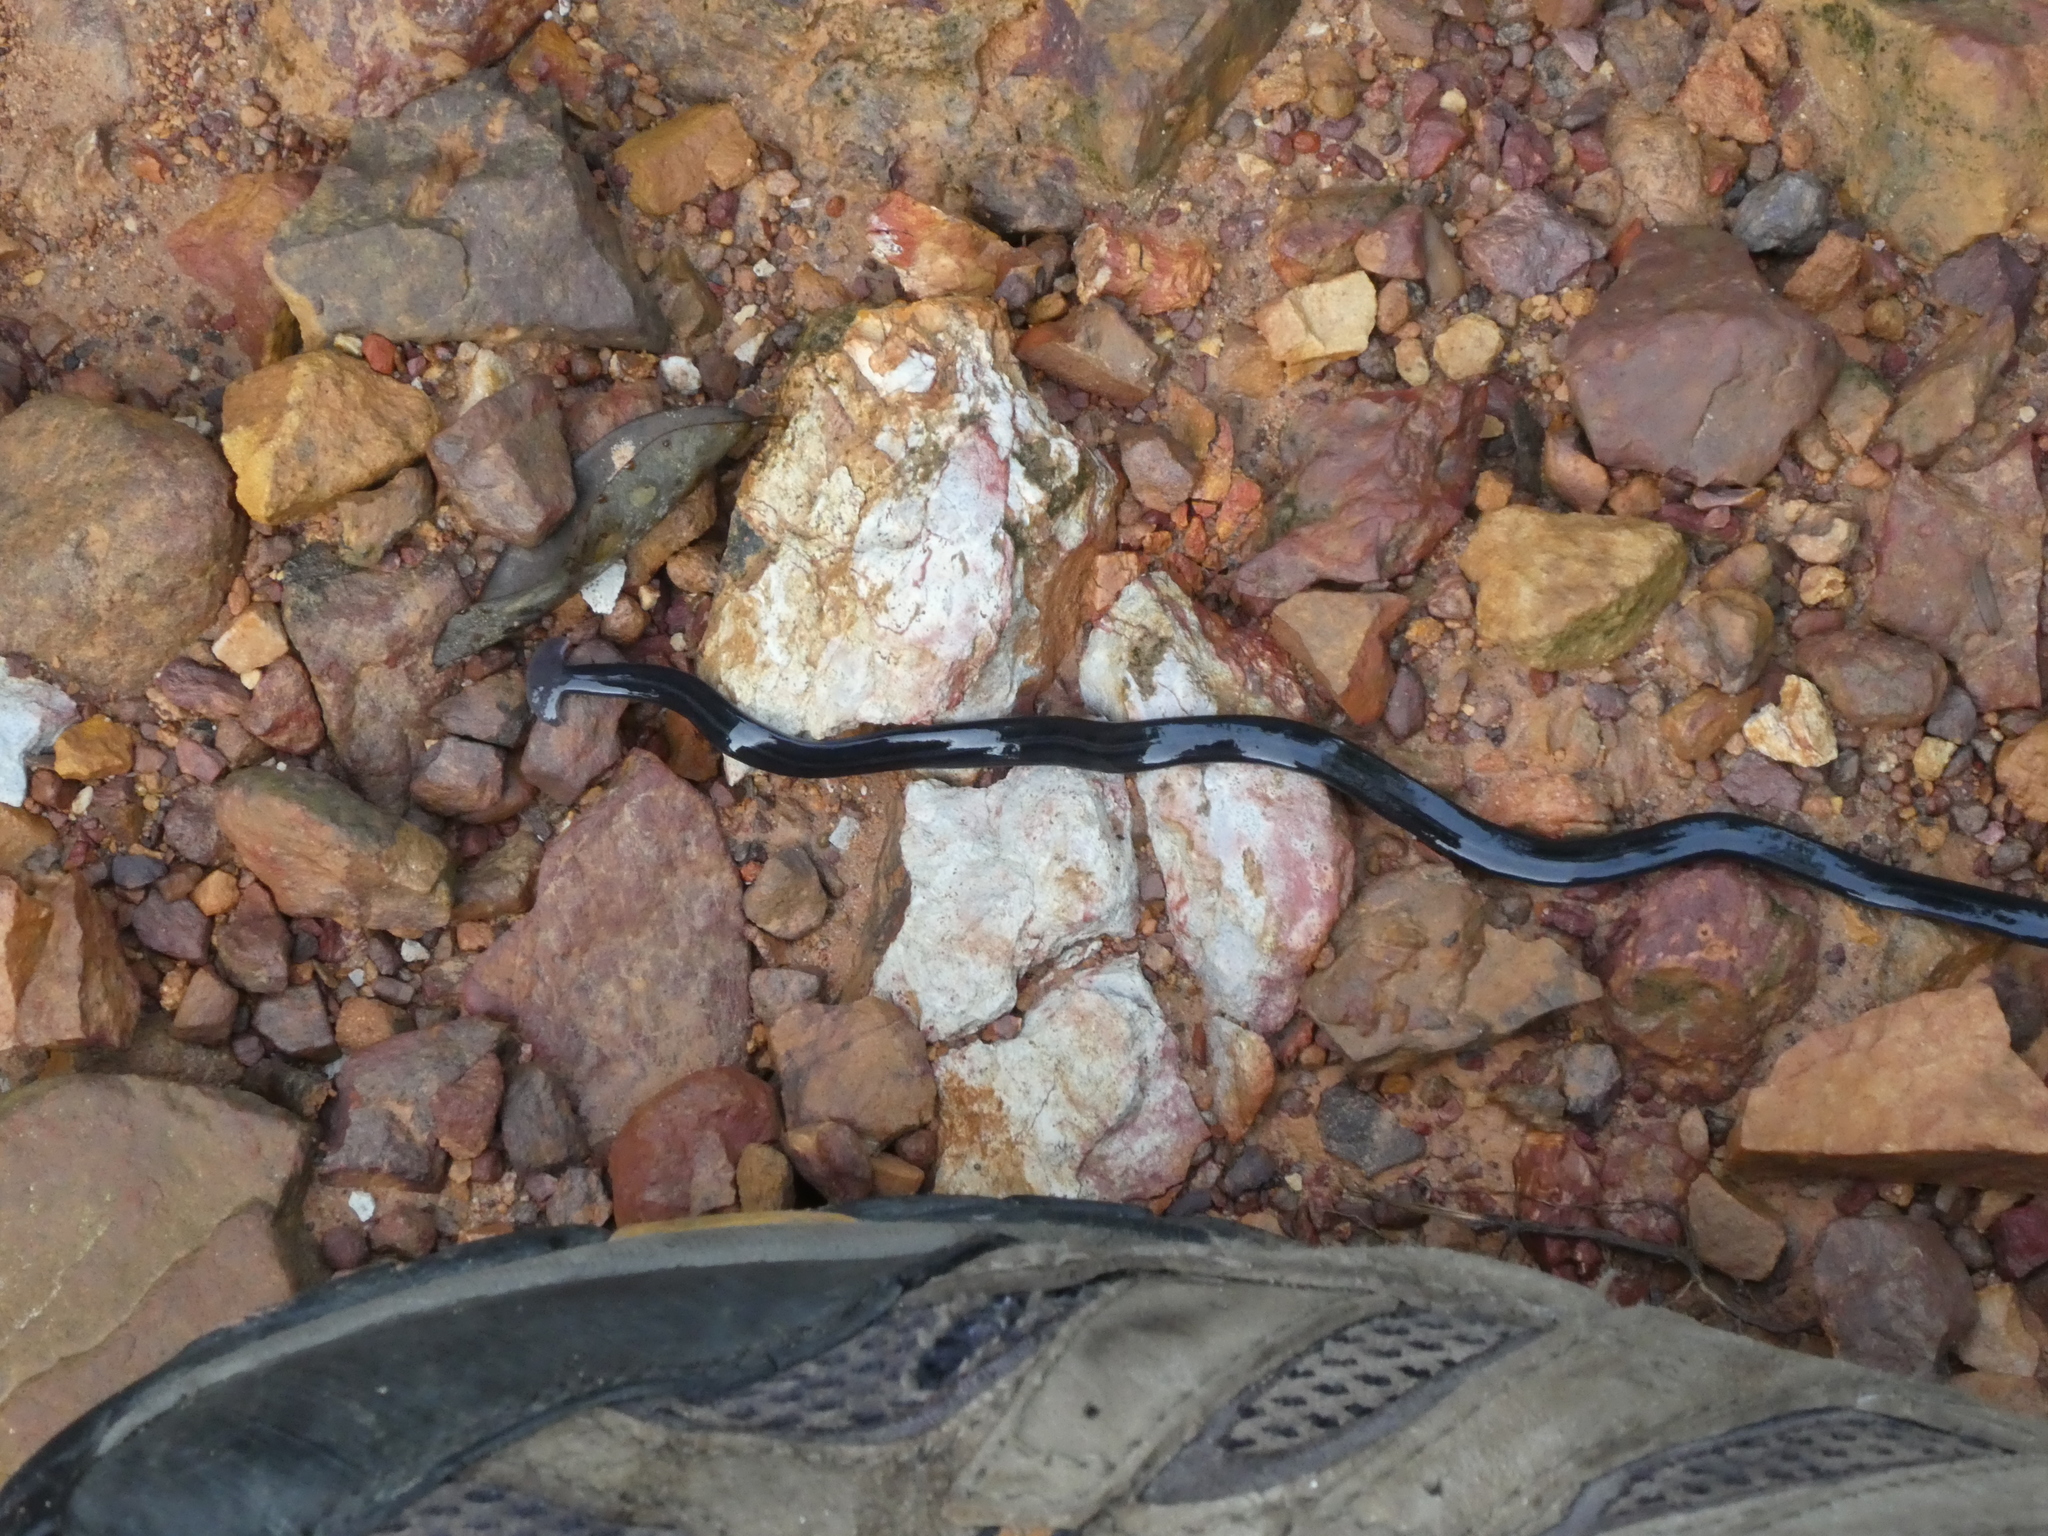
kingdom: Animalia
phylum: Platyhelminthes
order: Tricladida
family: Geoplanidae
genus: Bipalium
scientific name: Bipalium javanum
